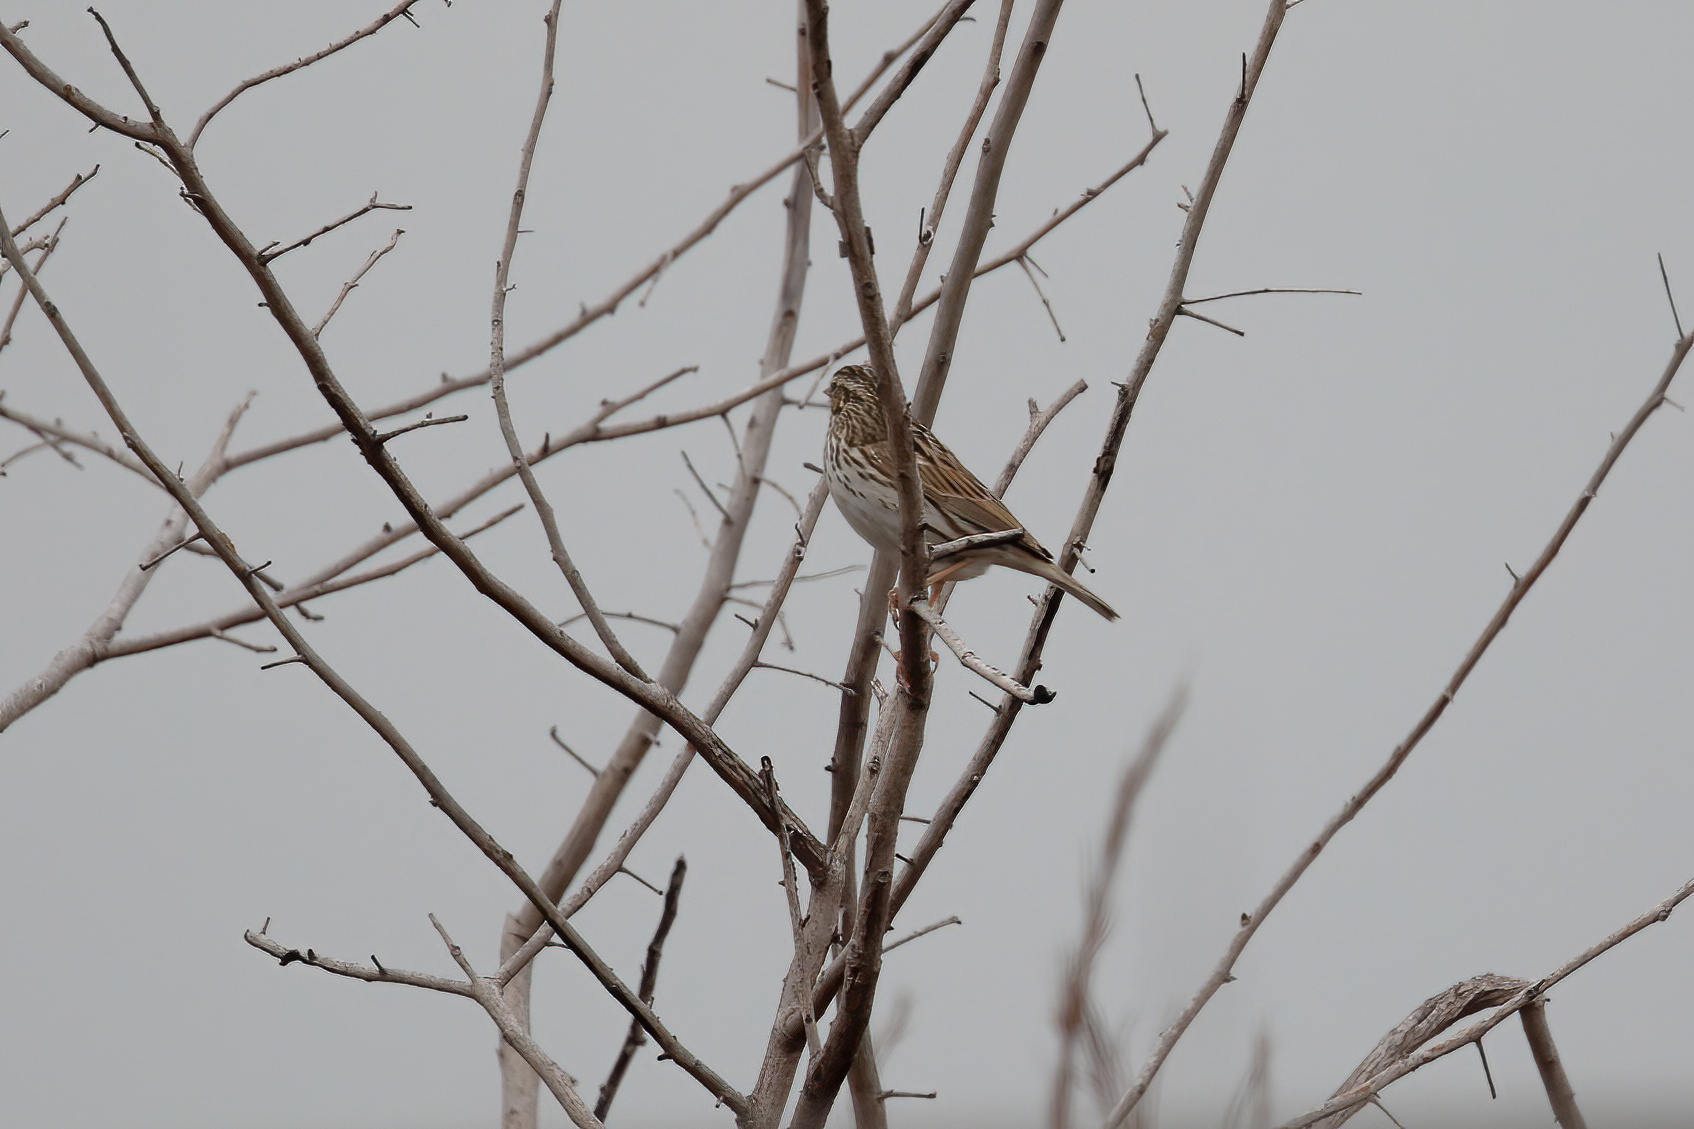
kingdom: Animalia
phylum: Chordata
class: Aves
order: Passeriformes
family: Passerellidae
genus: Passerculus
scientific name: Passerculus sandwichensis
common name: Savannah sparrow
